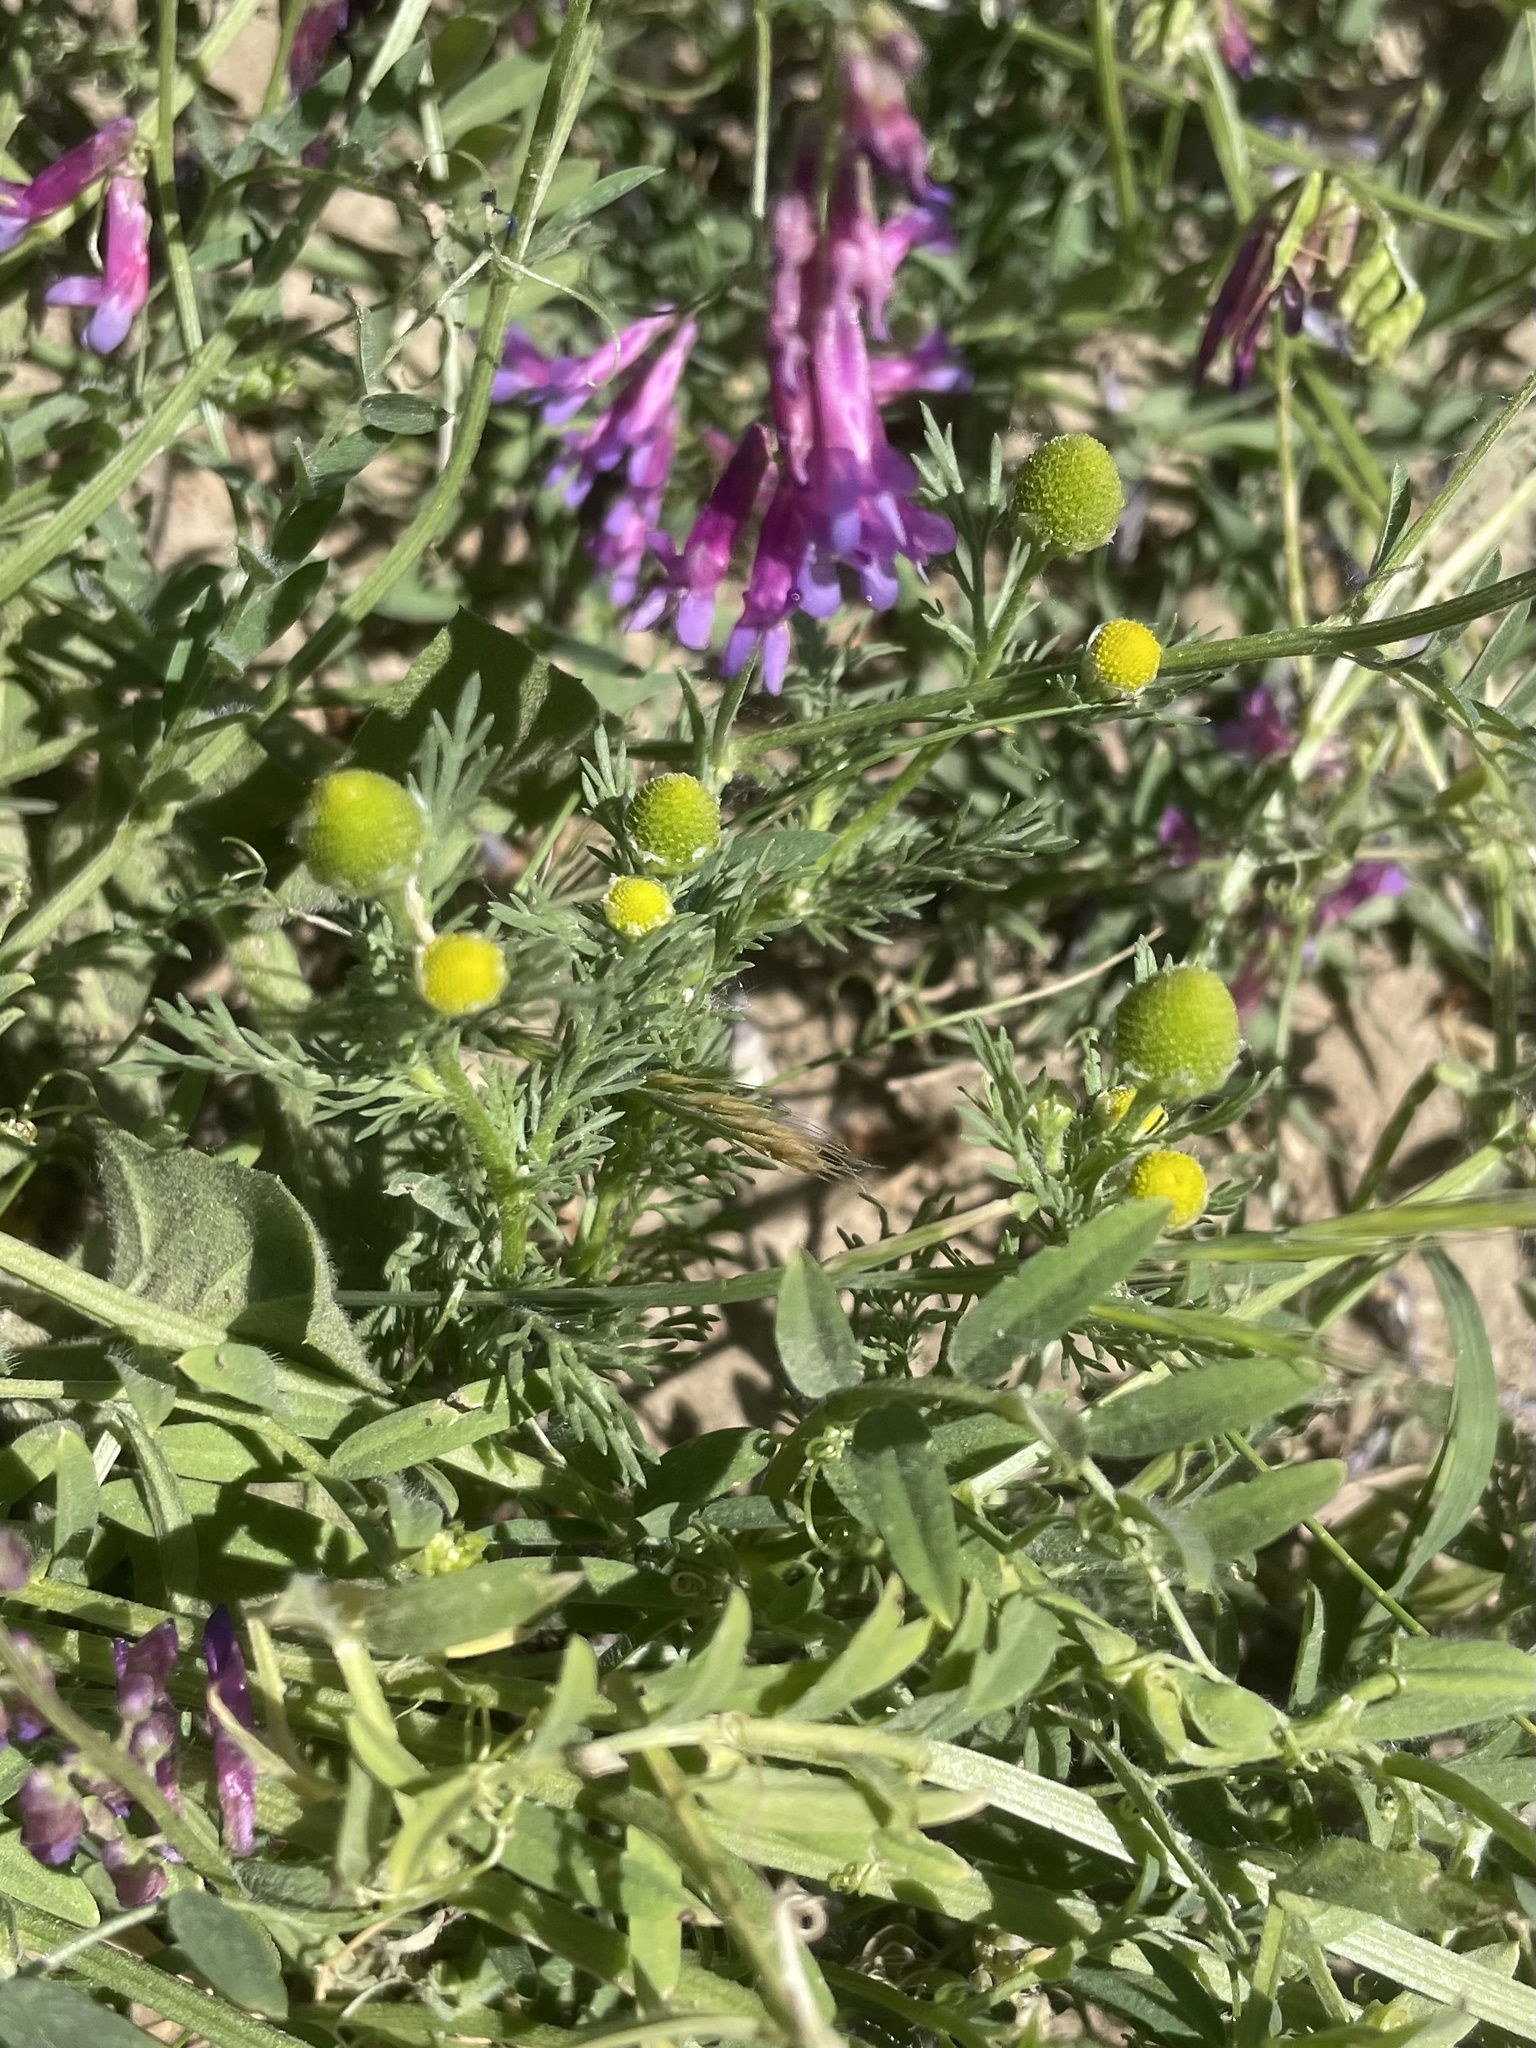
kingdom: Plantae
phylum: Tracheophyta
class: Magnoliopsida
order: Asterales
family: Asteraceae
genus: Matricaria
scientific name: Matricaria discoidea
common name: Disc mayweed
